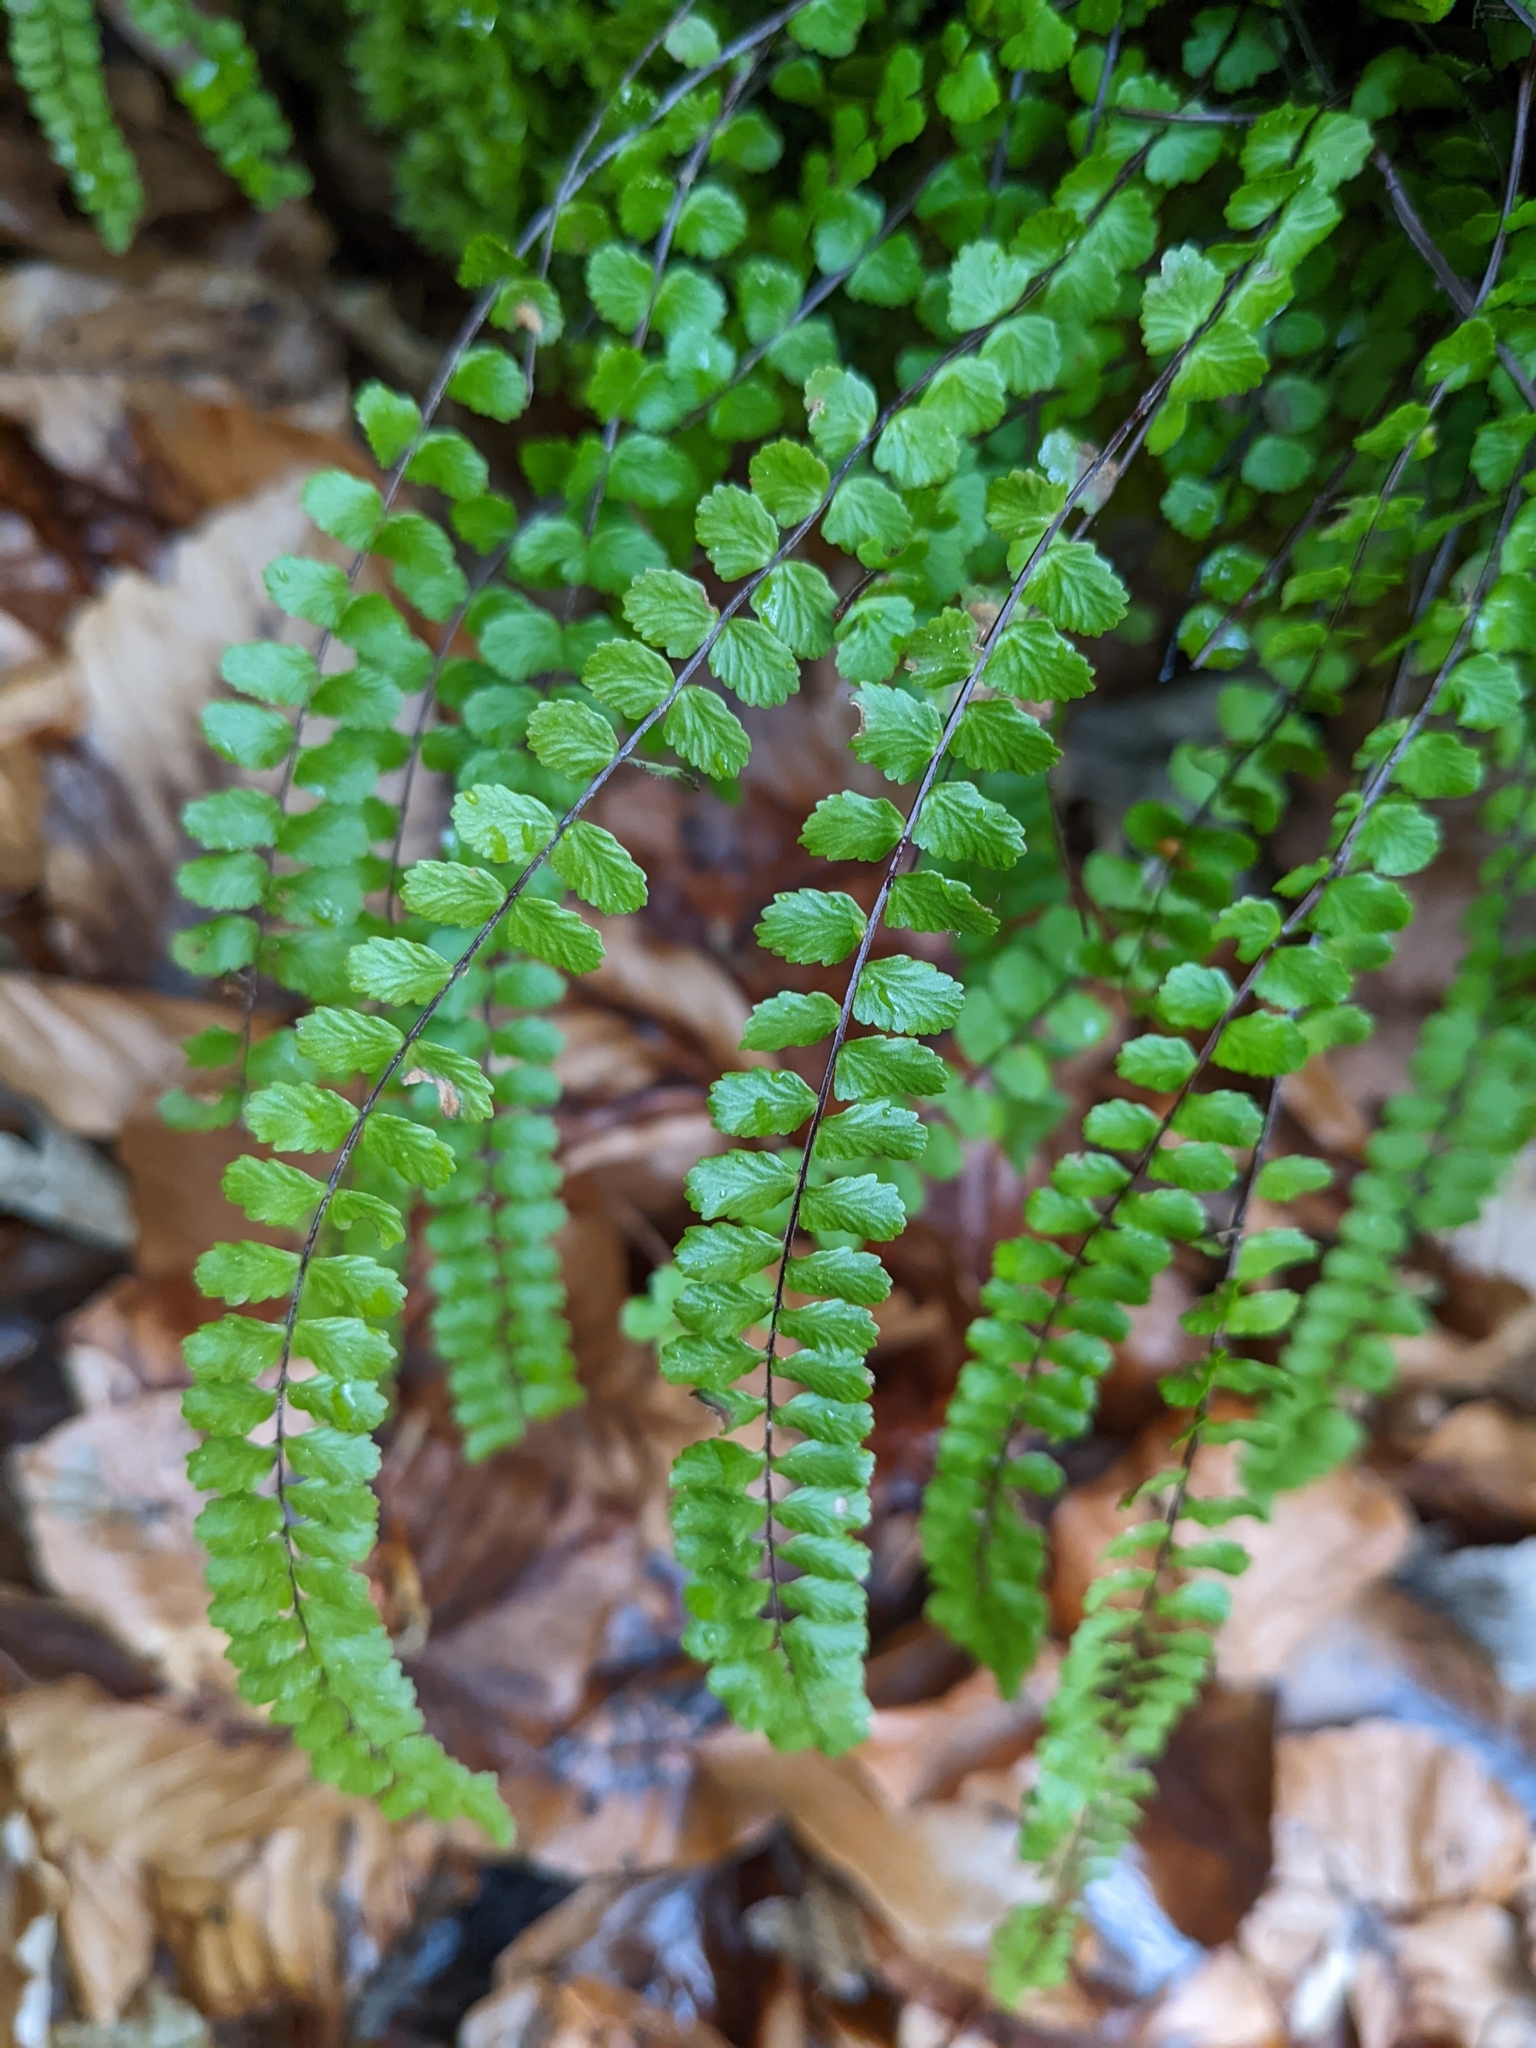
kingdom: Plantae
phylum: Tracheophyta
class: Polypodiopsida
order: Polypodiales
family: Aspleniaceae
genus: Asplenium
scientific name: Asplenium trichomanes
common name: Maidenhair spleenwort
